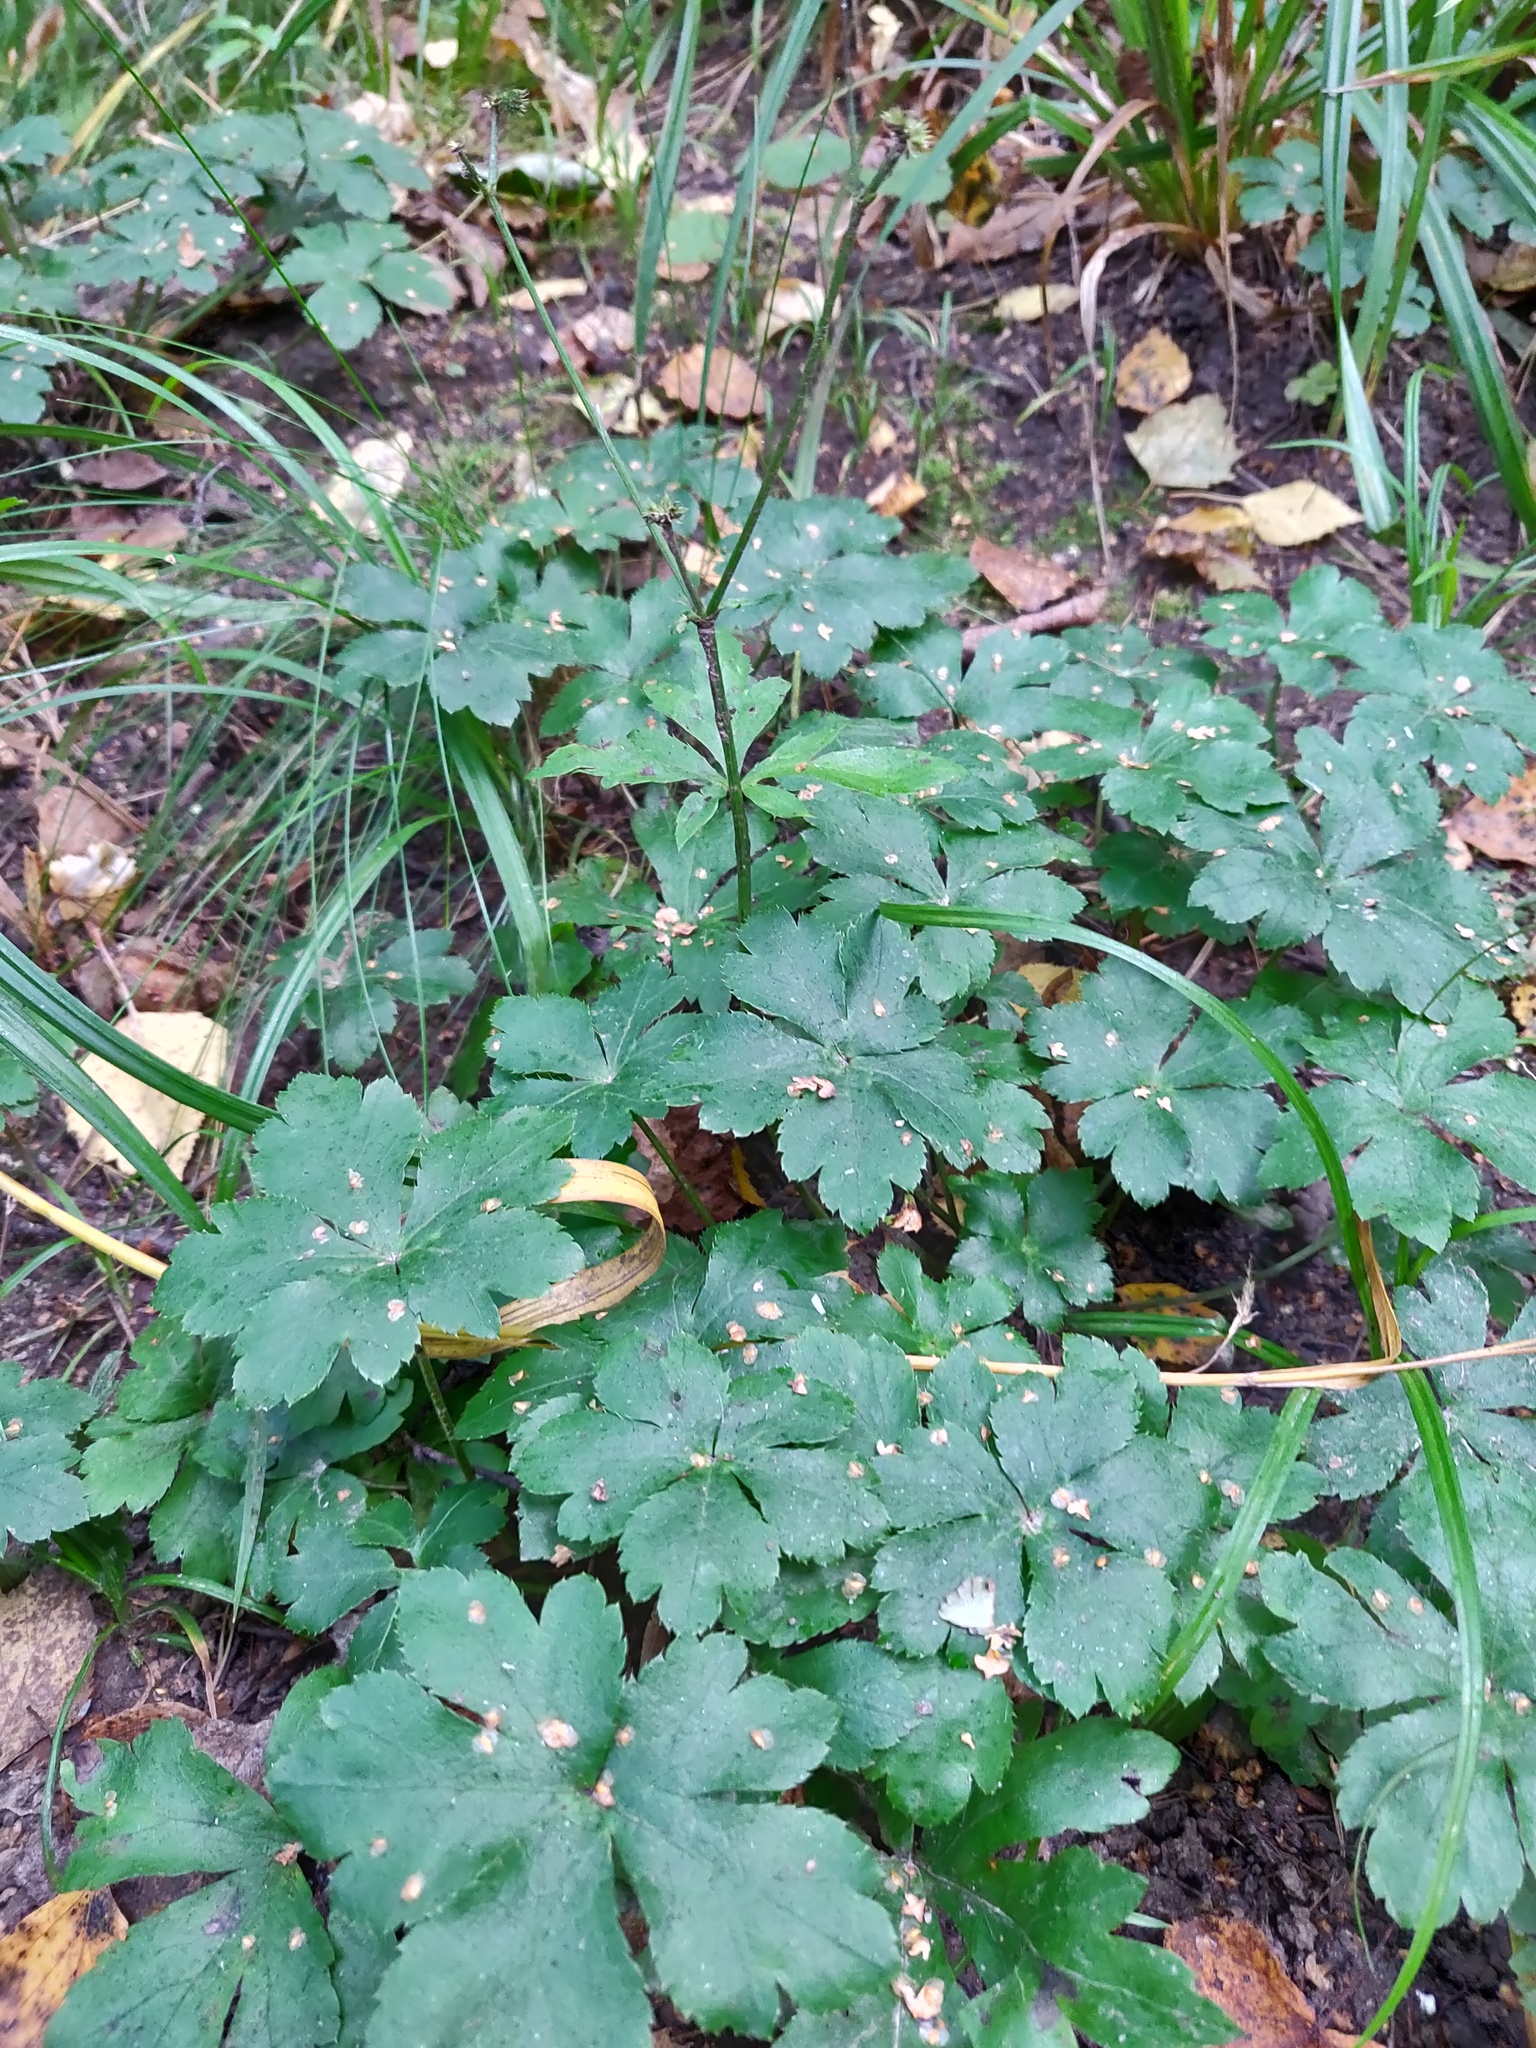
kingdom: Plantae
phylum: Tracheophyta
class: Magnoliopsida
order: Apiales
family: Apiaceae
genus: Sanicula
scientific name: Sanicula europaea
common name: Sanicle
